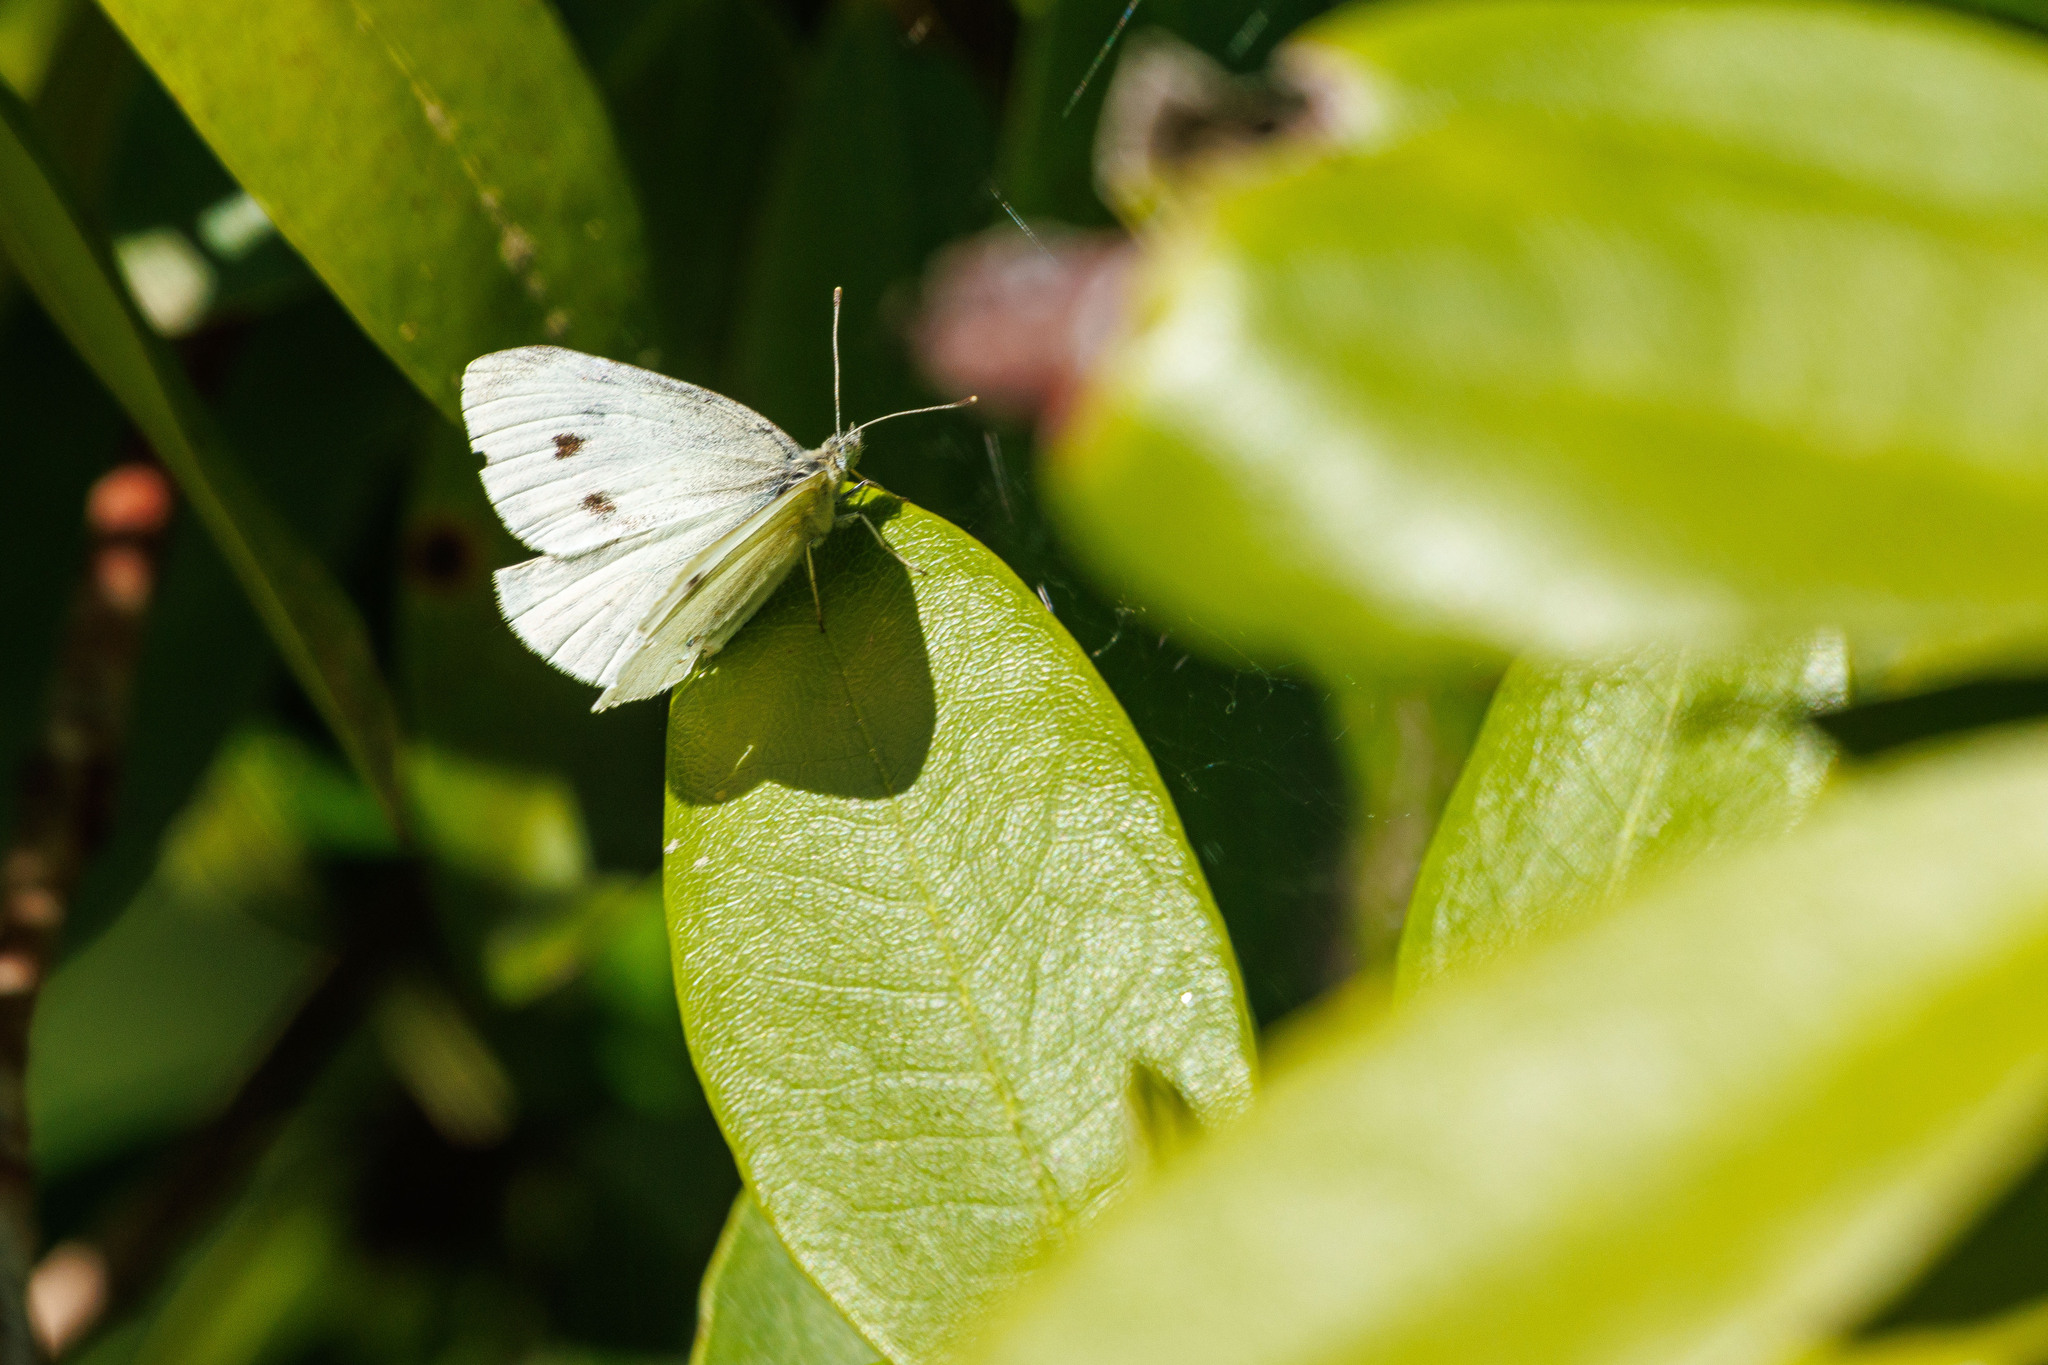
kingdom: Animalia
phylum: Arthropoda
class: Insecta
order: Lepidoptera
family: Pieridae
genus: Pieris
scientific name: Pieris rapae
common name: Small white
